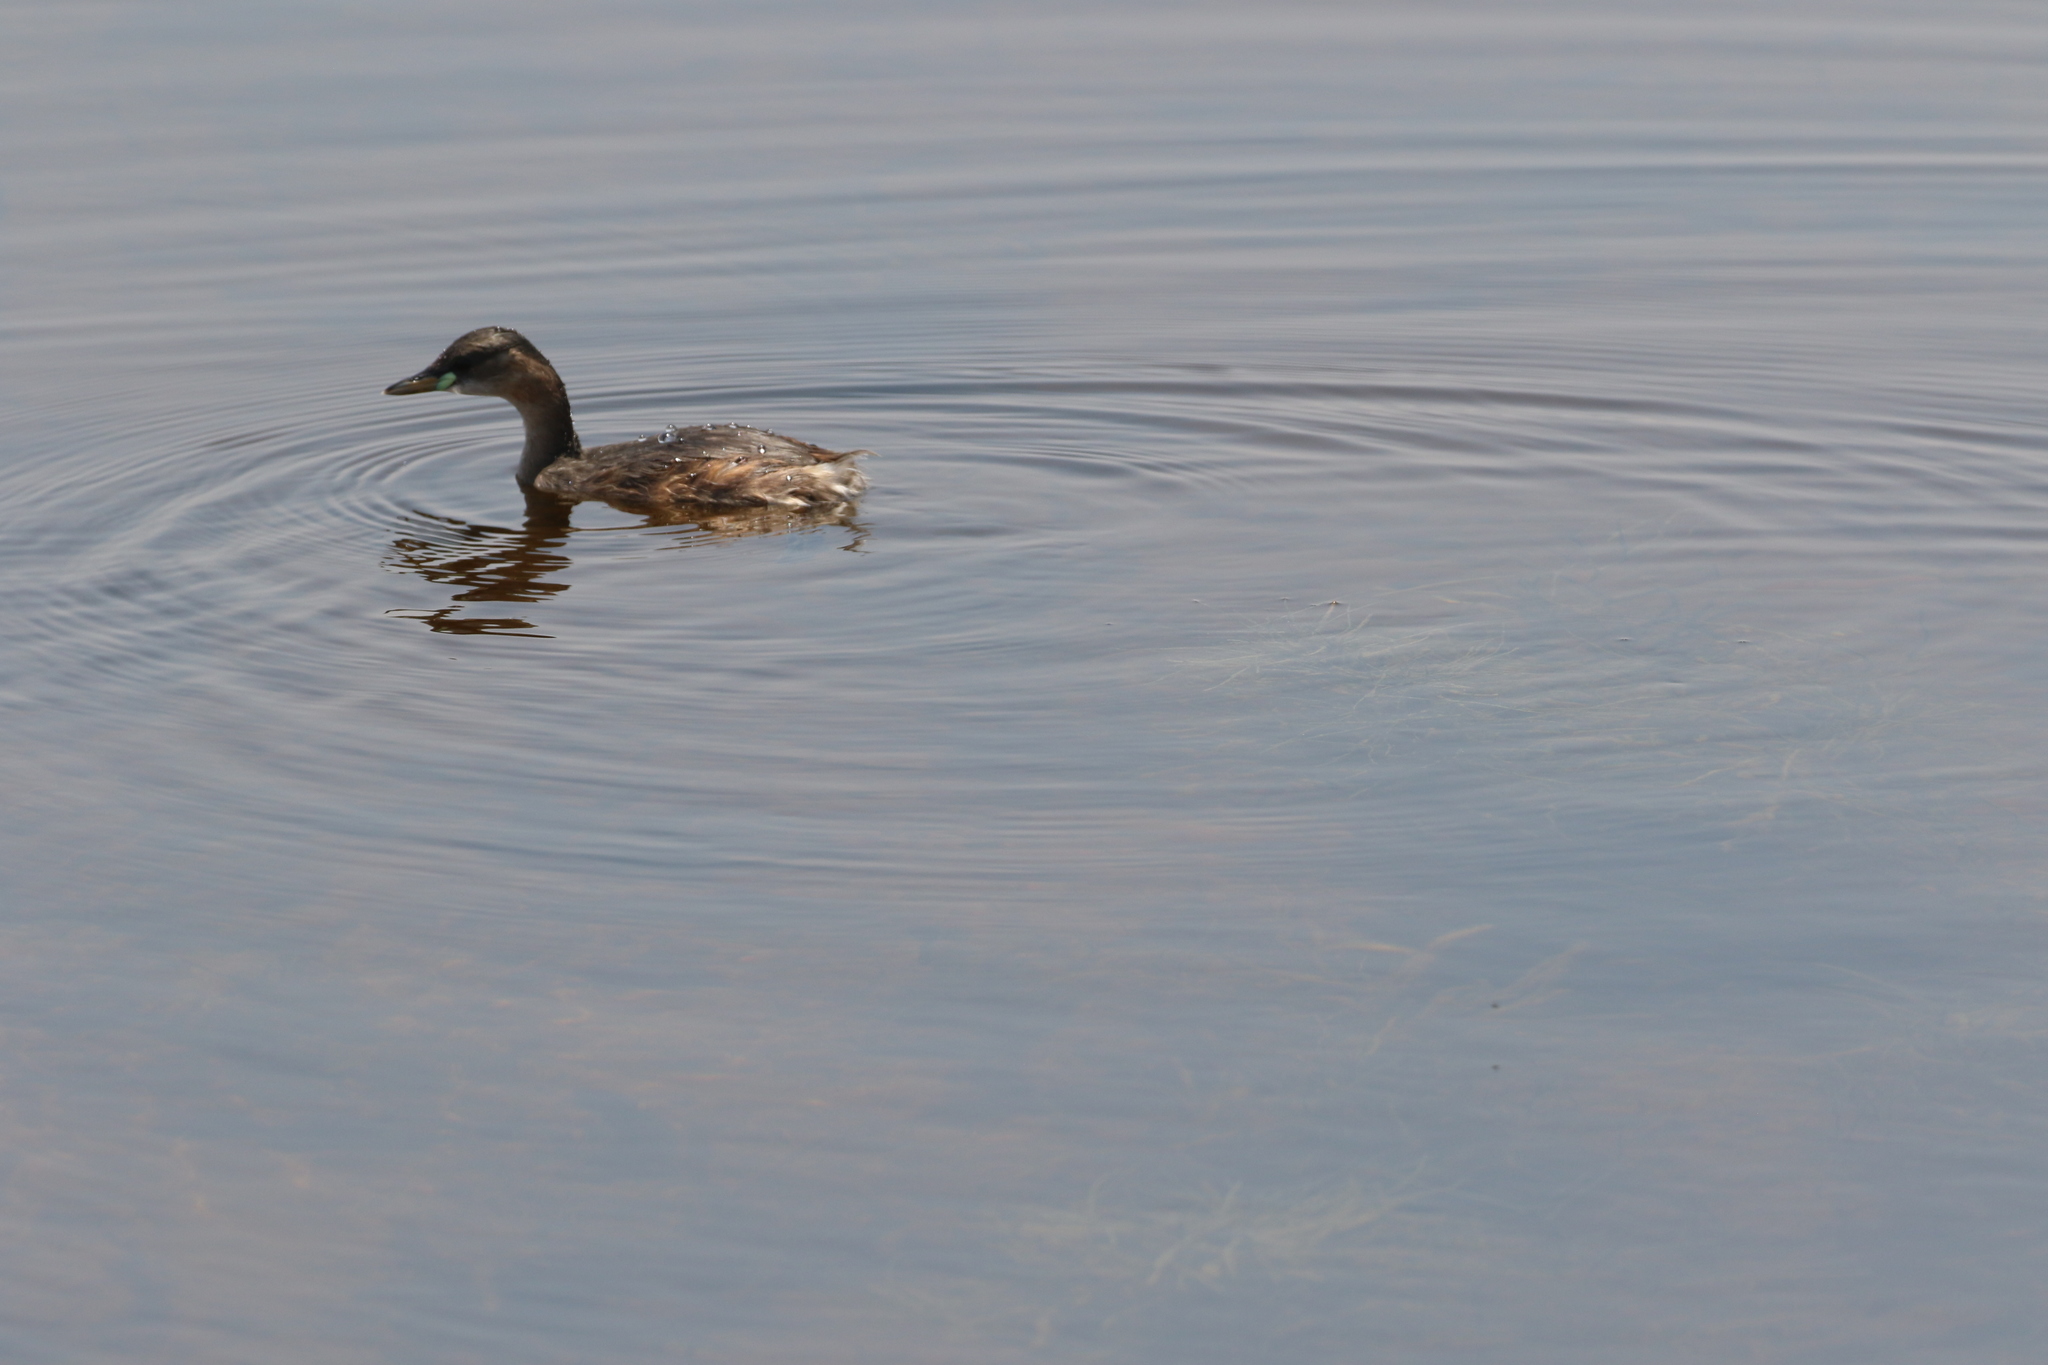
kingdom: Animalia
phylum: Chordata
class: Aves
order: Podicipediformes
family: Podicipedidae
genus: Tachybaptus
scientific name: Tachybaptus ruficollis
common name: Little grebe
